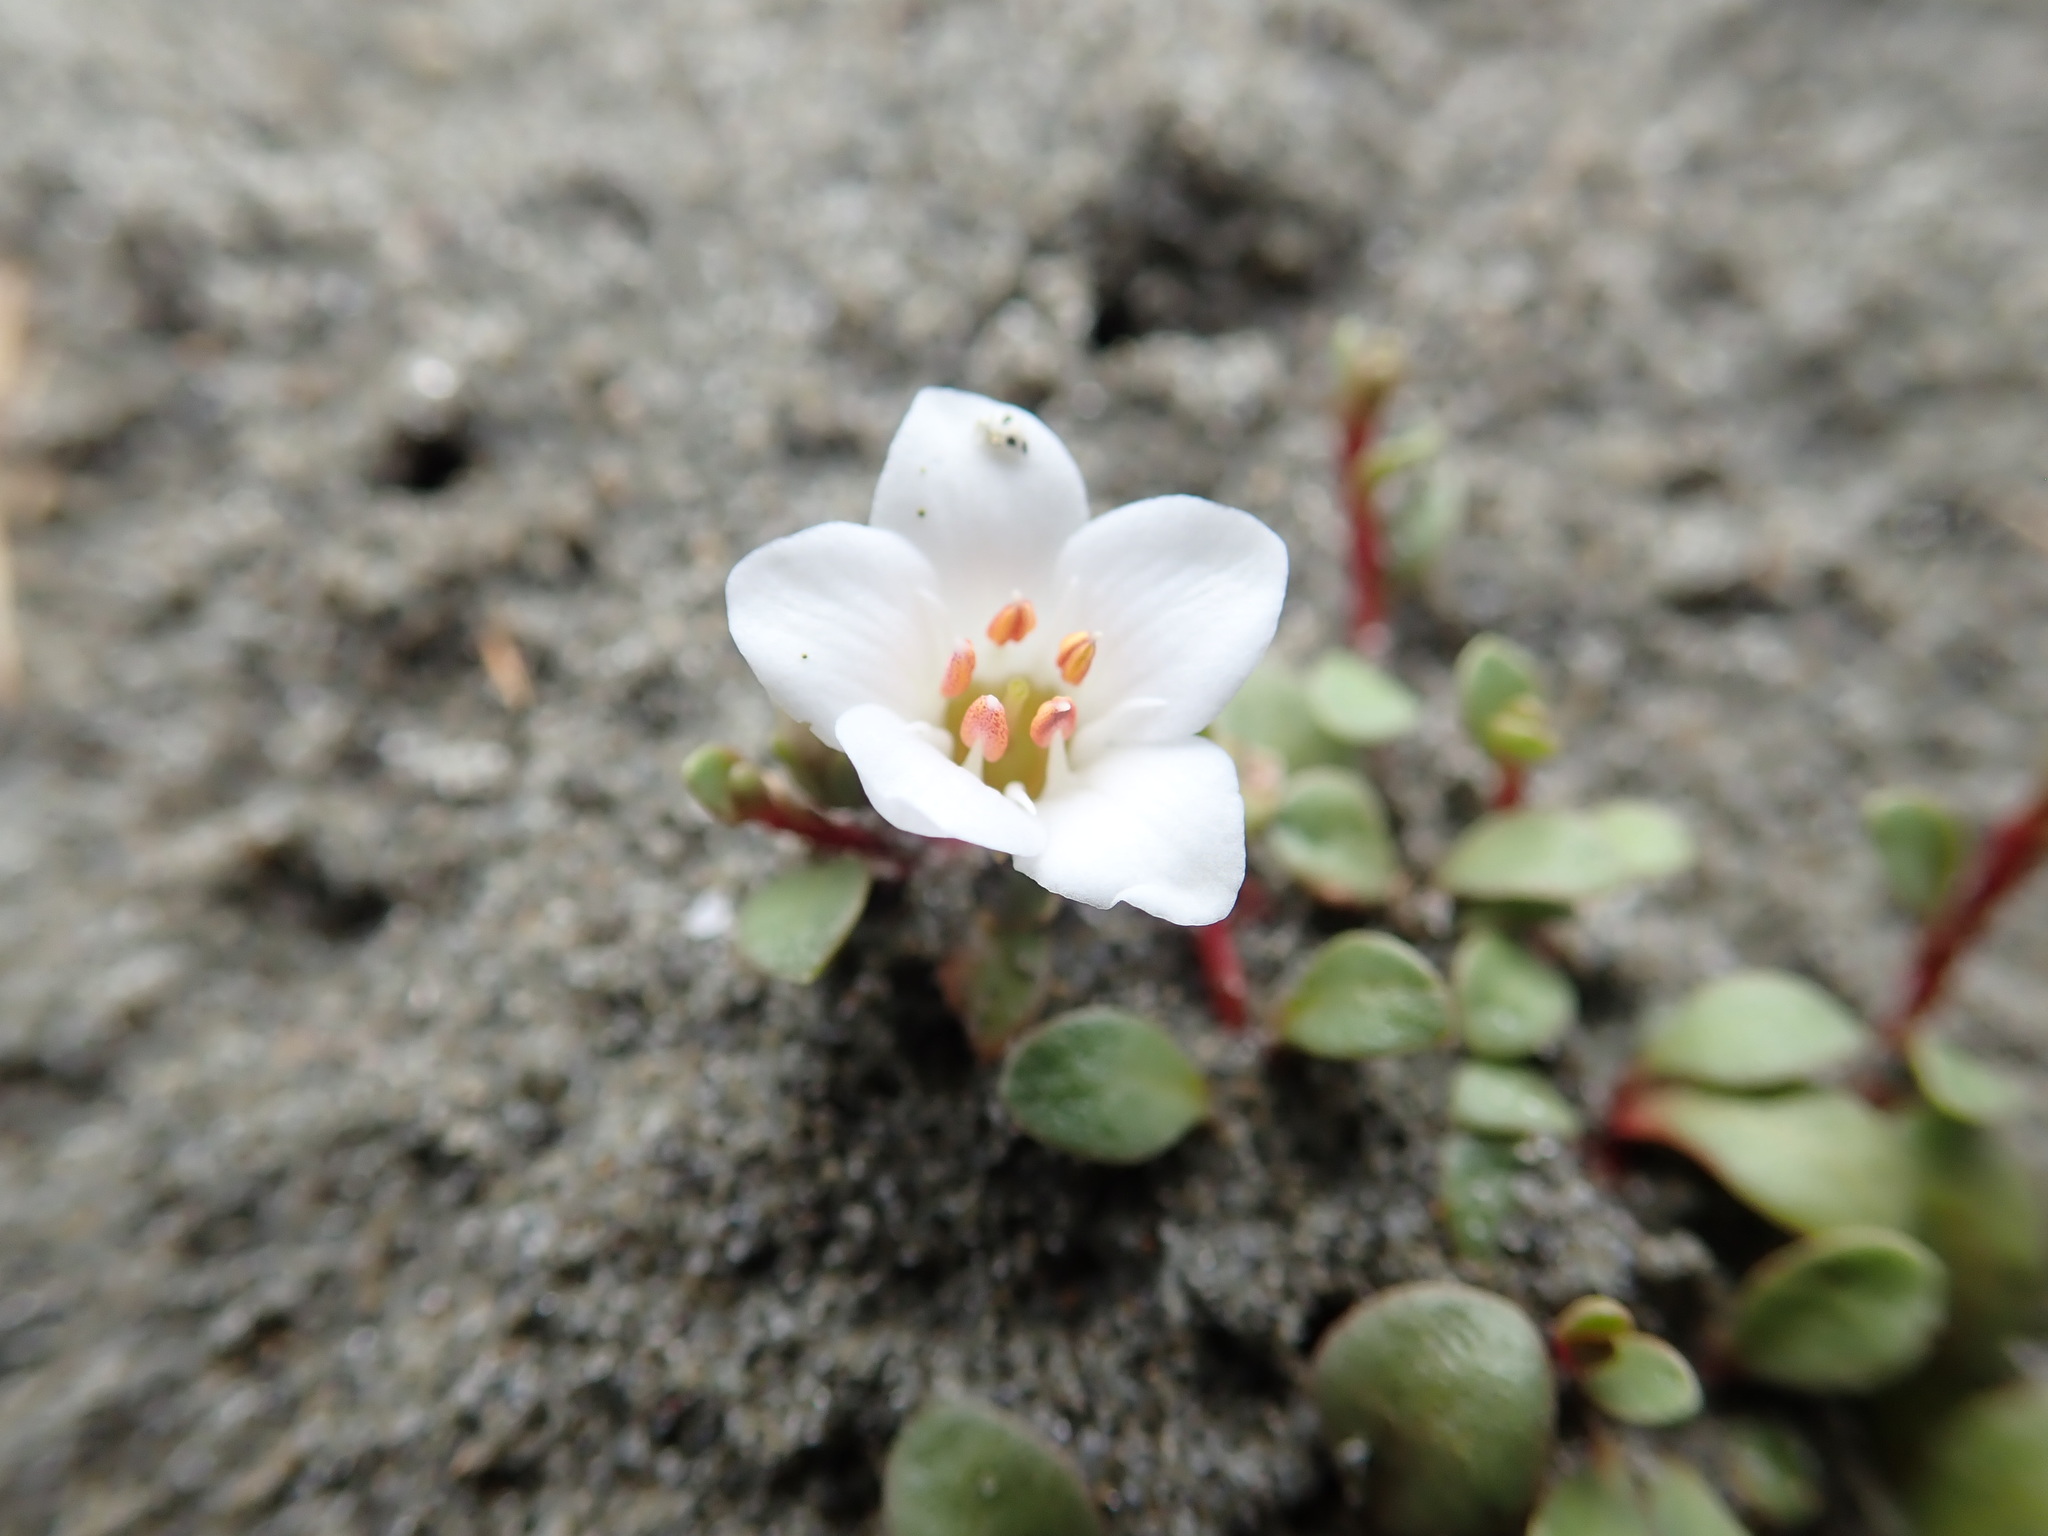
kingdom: Plantae
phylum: Tracheophyta
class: Magnoliopsida
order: Ericales
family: Primulaceae
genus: Samolus
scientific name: Samolus repens
